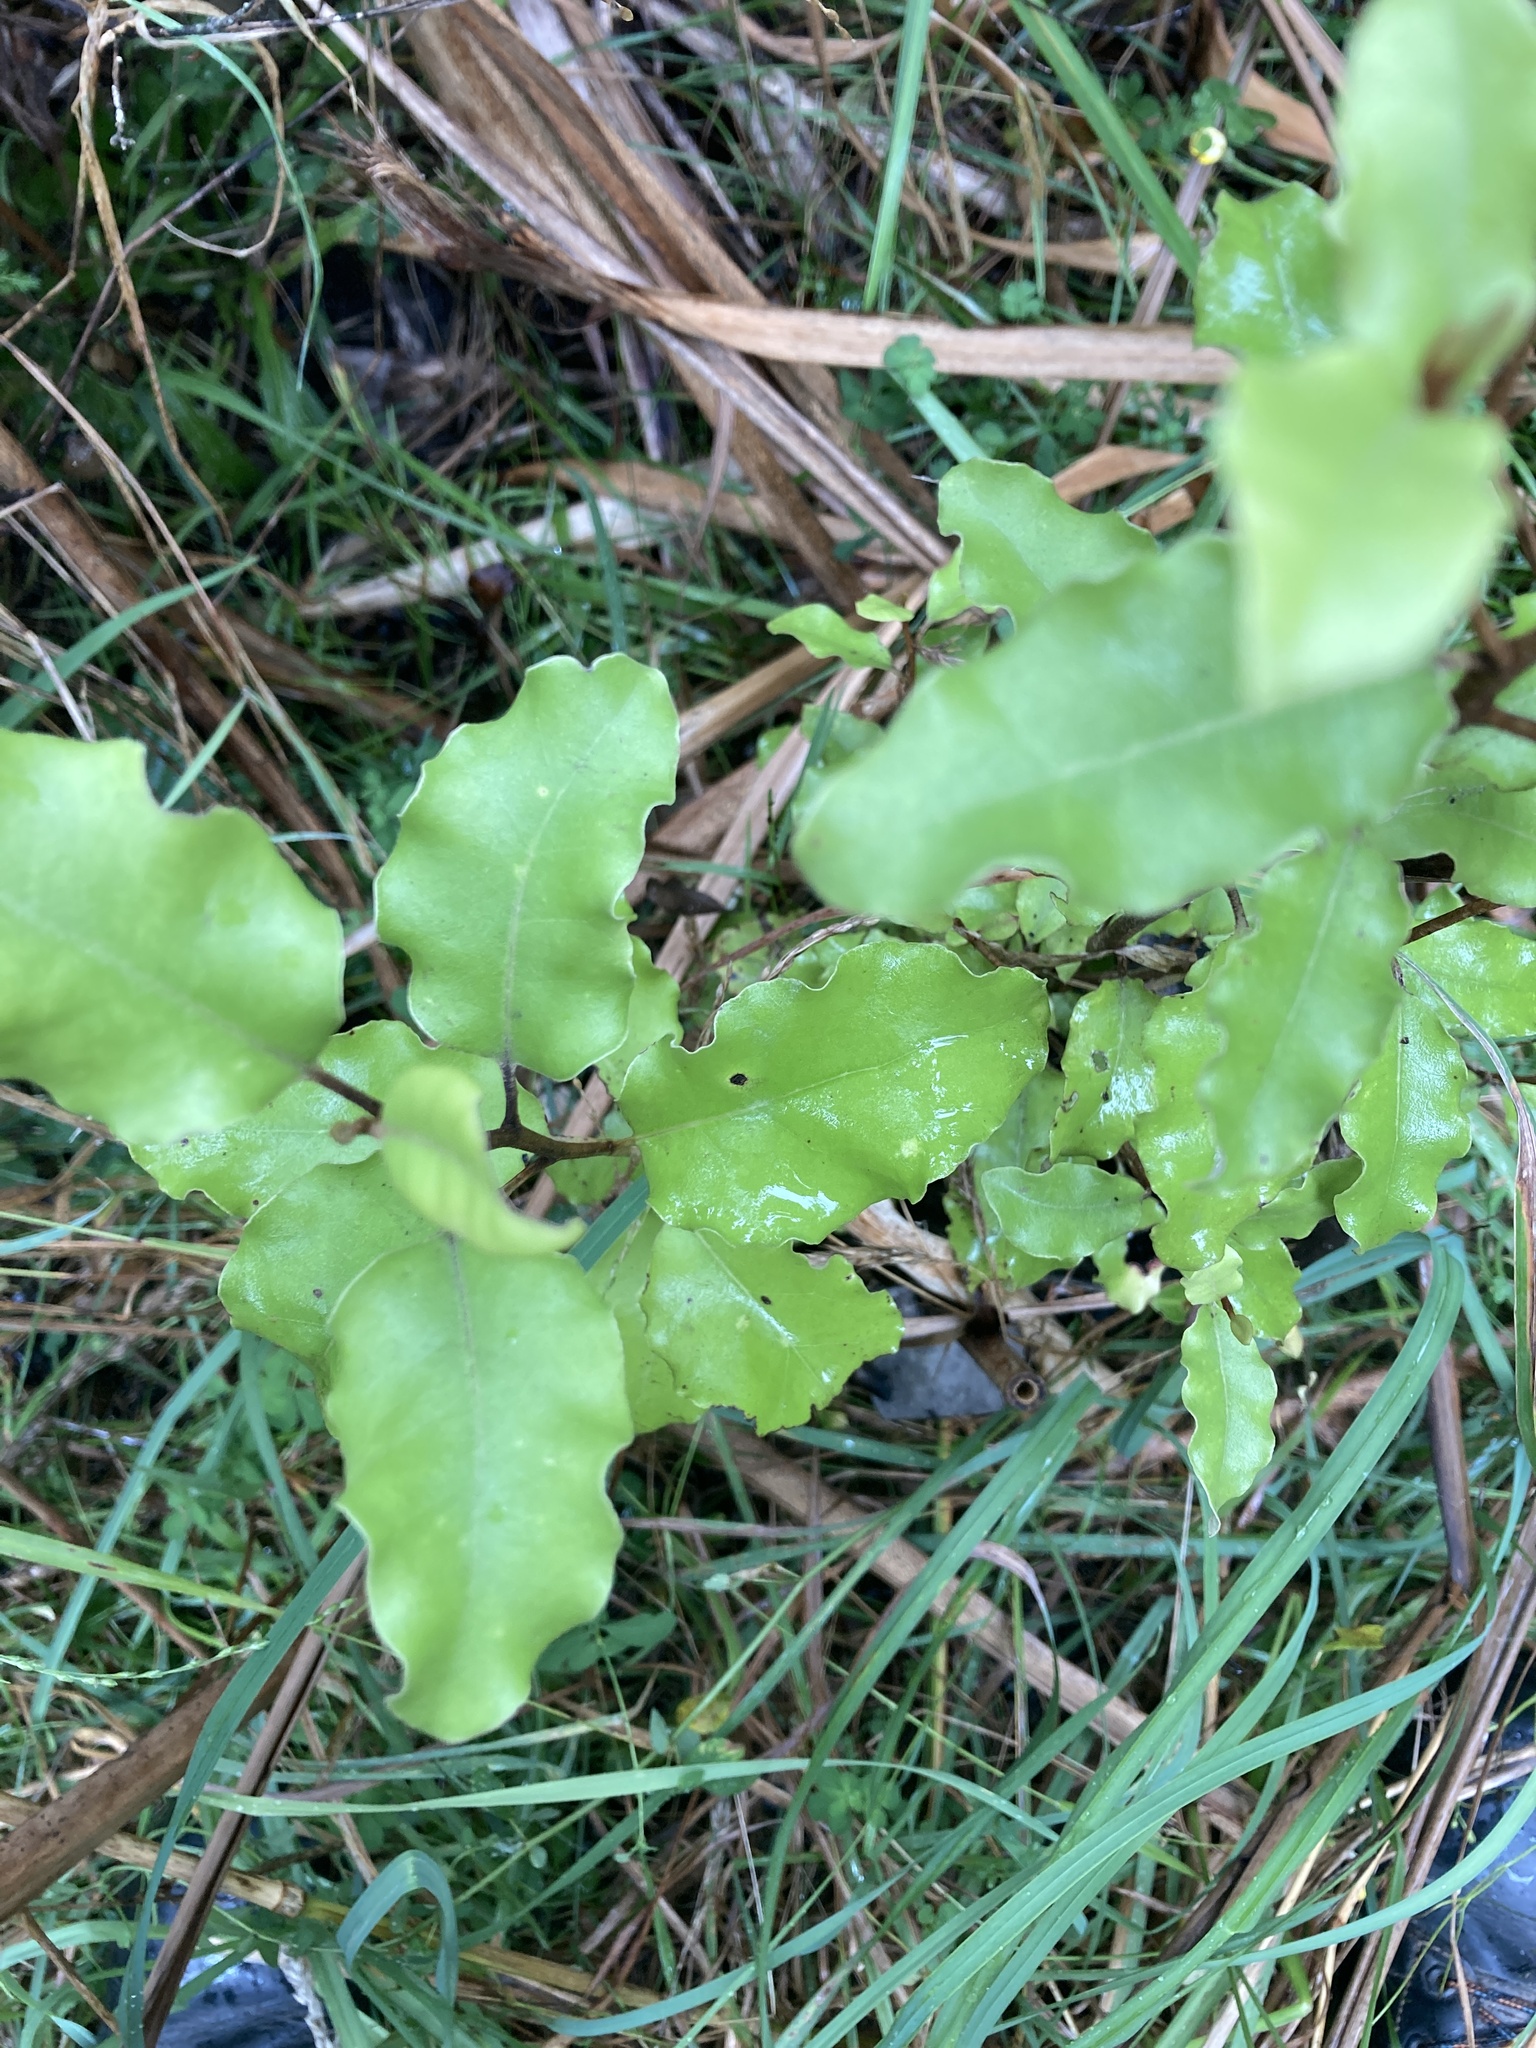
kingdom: Plantae
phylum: Tracheophyta
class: Magnoliopsida
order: Asterales
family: Asteraceae
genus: Olearia
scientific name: Olearia paniculata
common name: Akiraho
